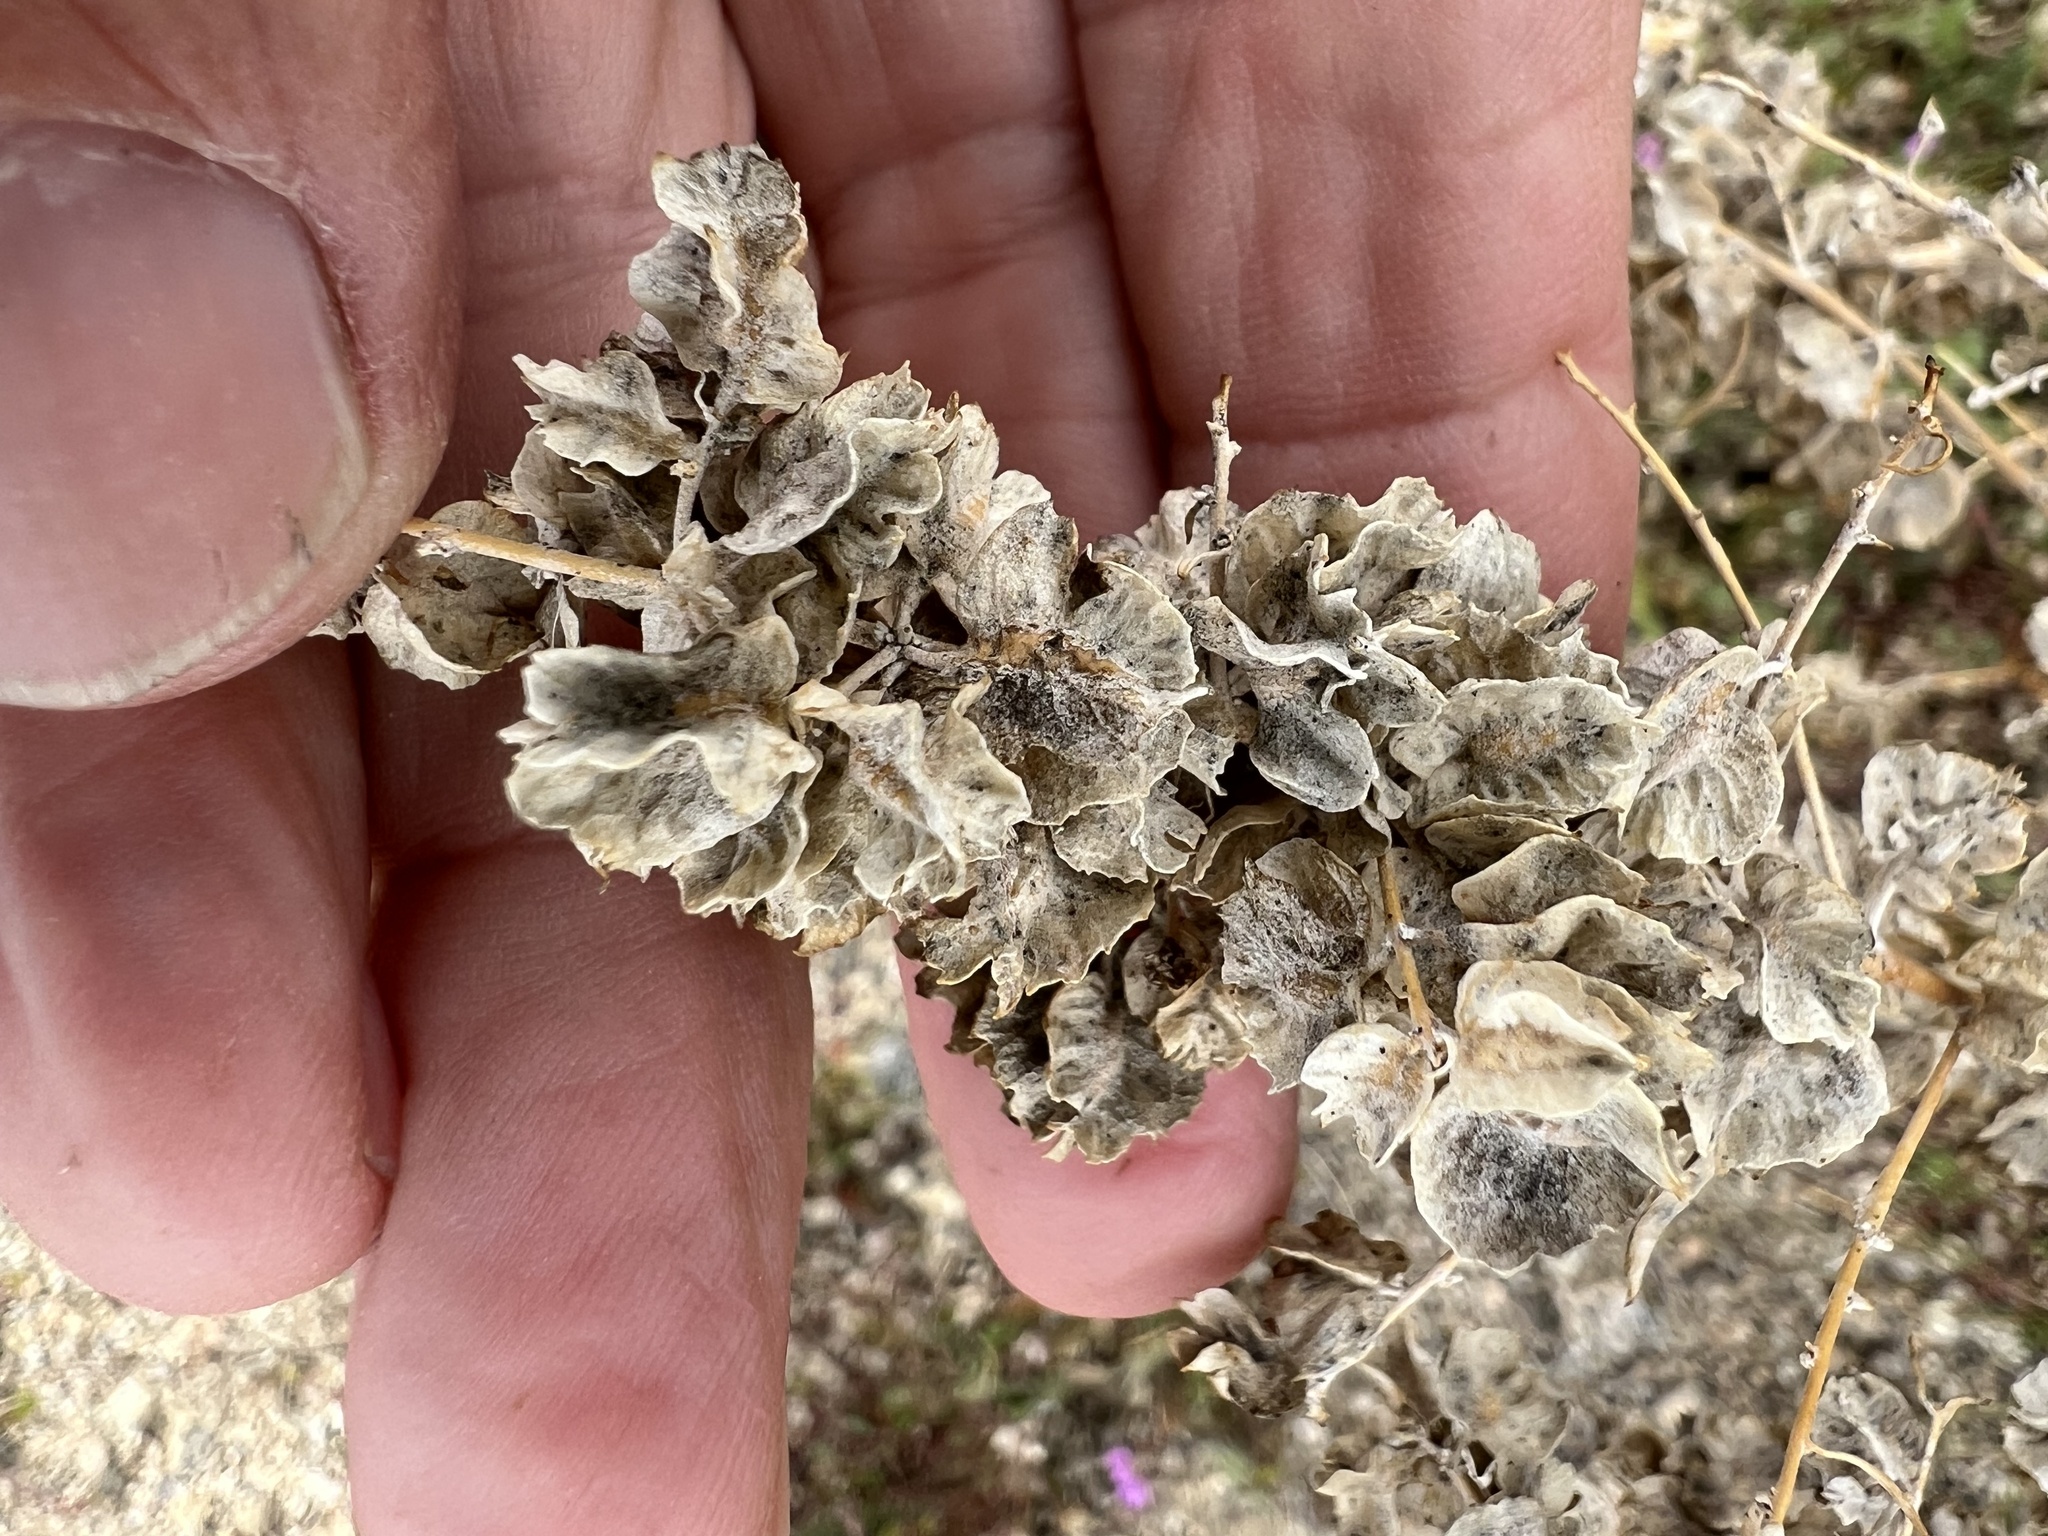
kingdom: Plantae
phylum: Tracheophyta
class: Magnoliopsida
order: Caryophyllales
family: Amaranthaceae
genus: Atriplex
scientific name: Atriplex canescens
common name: Four-wing saltbush
